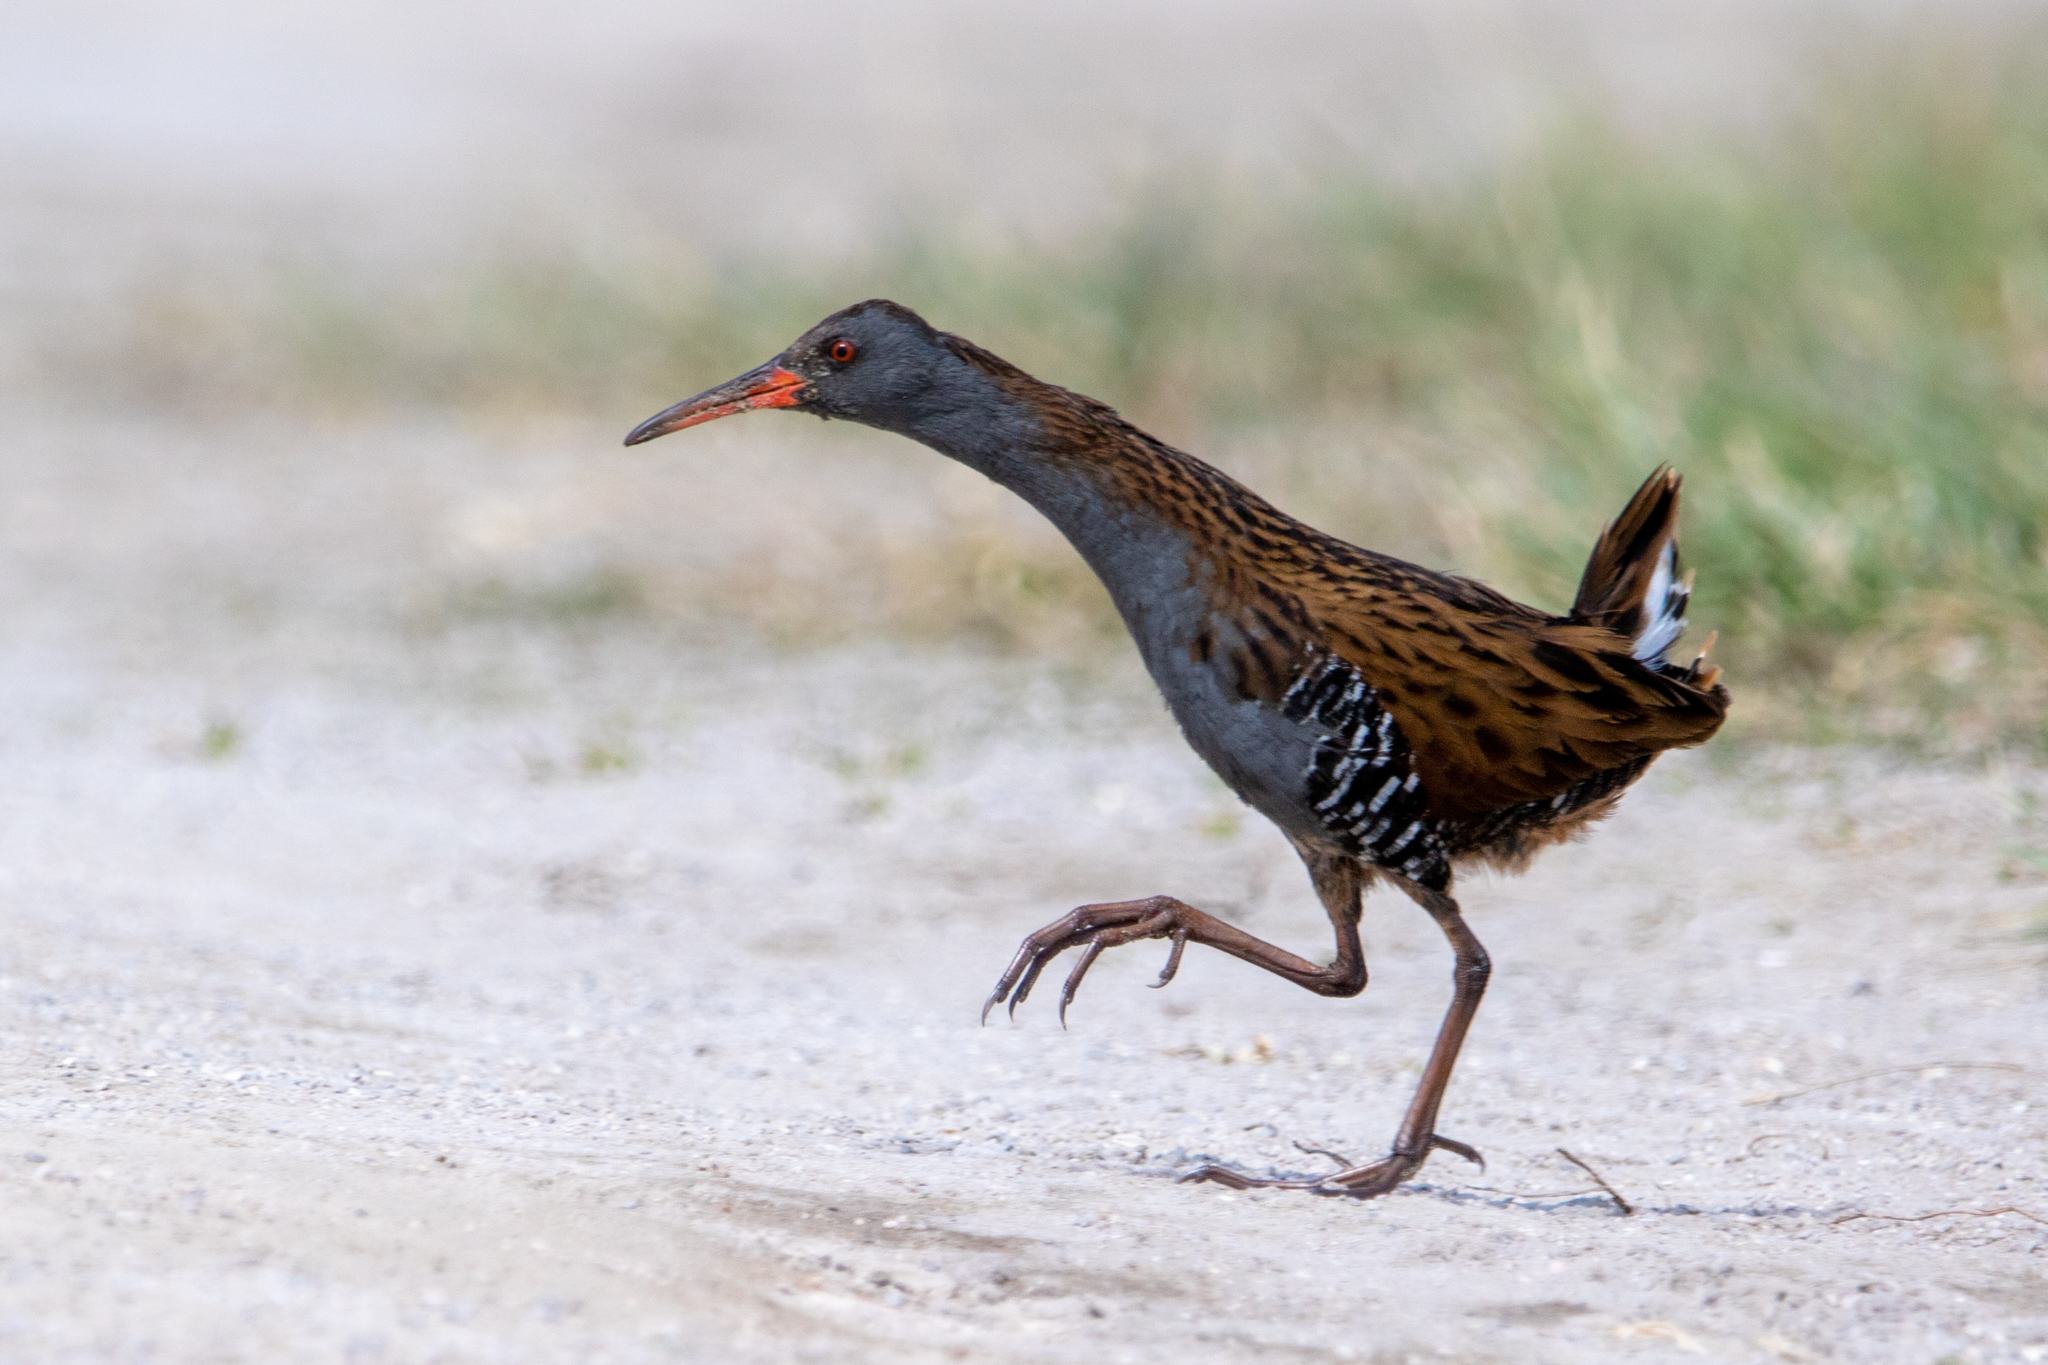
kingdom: Animalia
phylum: Chordata
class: Aves
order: Gruiformes
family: Rallidae
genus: Rallus
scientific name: Rallus aquaticus
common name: Water rail
